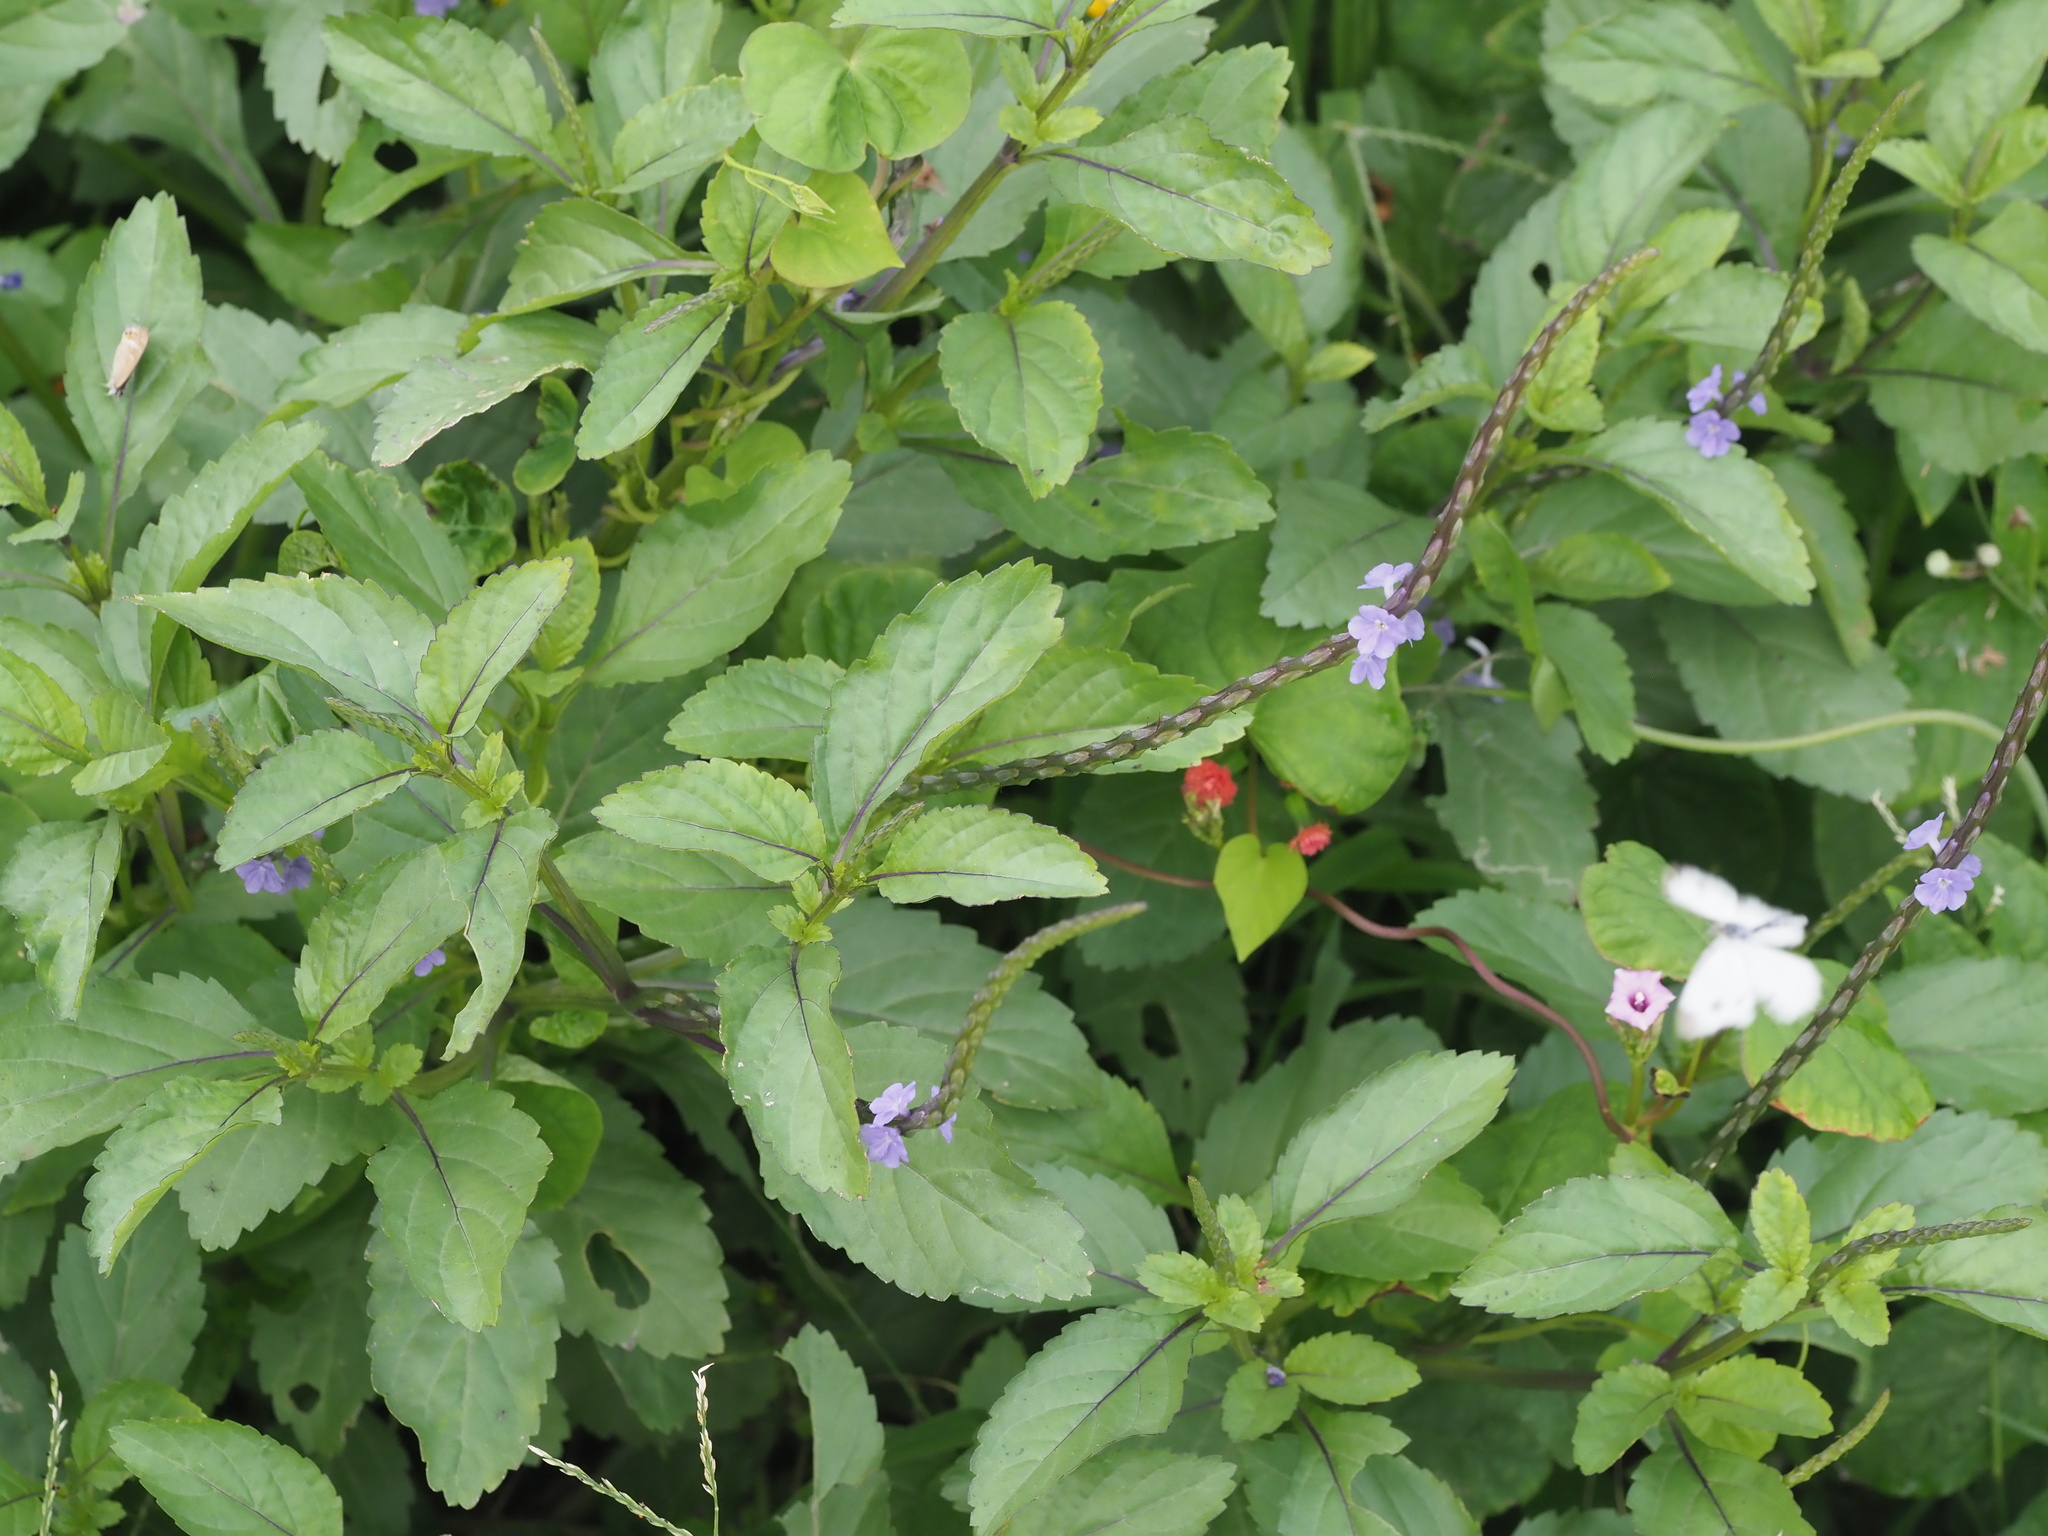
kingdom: Plantae
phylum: Tracheophyta
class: Magnoliopsida
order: Lamiales
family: Verbenaceae
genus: Stachytarpheta
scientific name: Stachytarpheta jamaicensis
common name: Light-blue snakeweed
